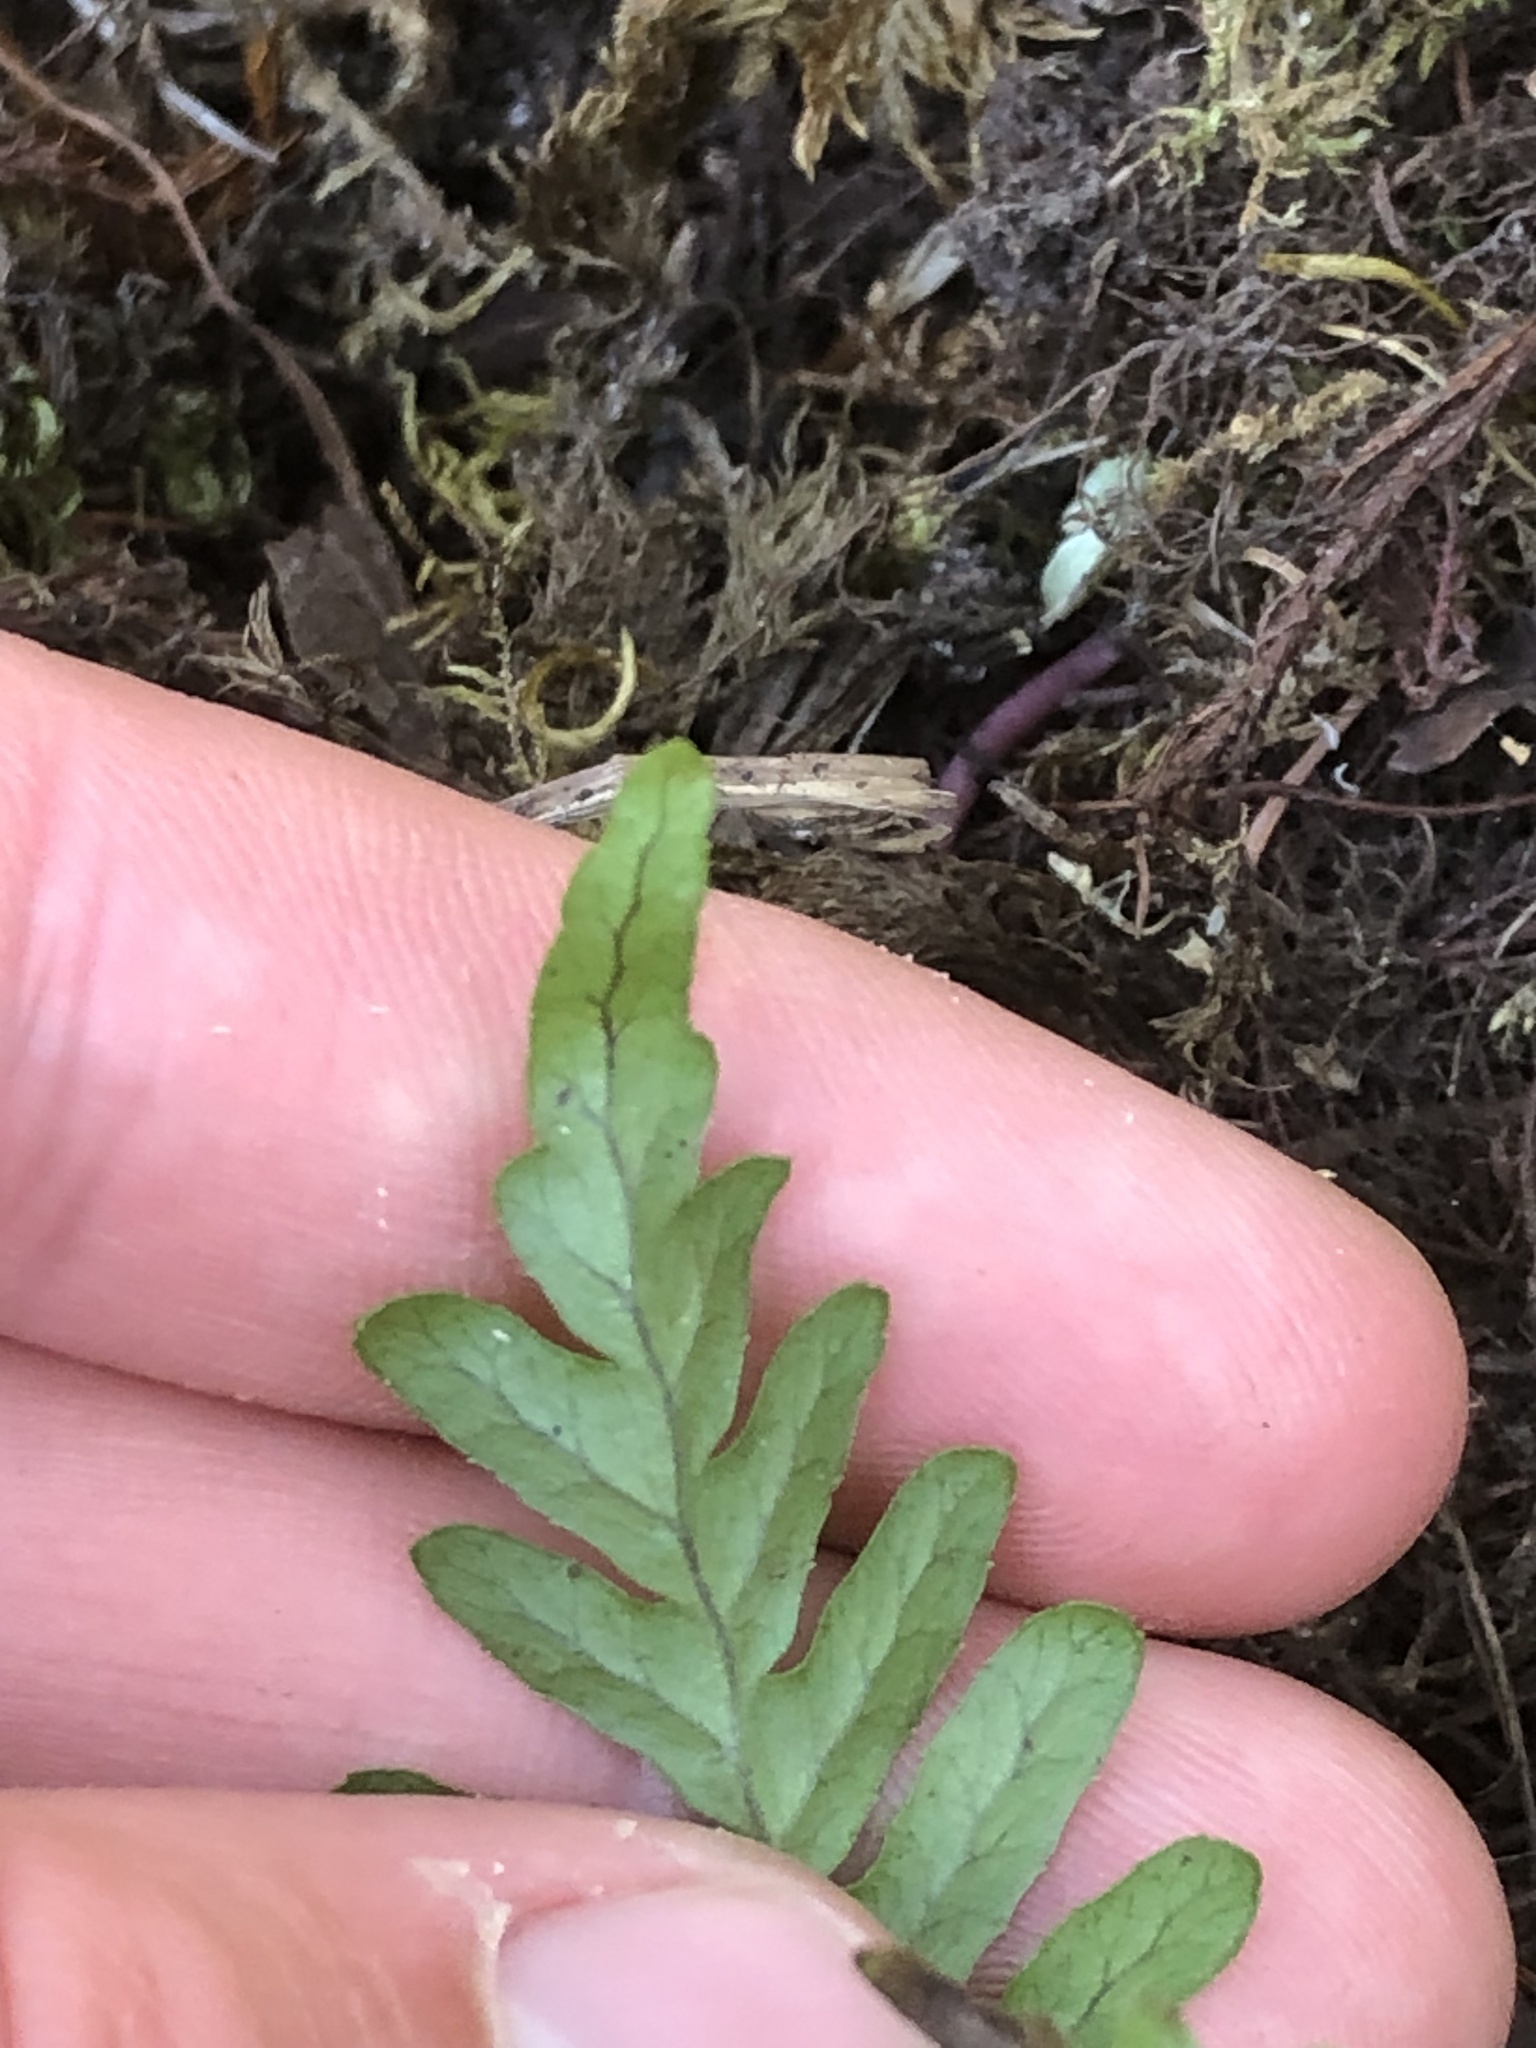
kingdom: Plantae
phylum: Tracheophyta
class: Polypodiopsida
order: Polypodiales
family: Polypodiaceae
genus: Polypodium
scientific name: Polypodium glycyrrhiza
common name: Licorice fern
